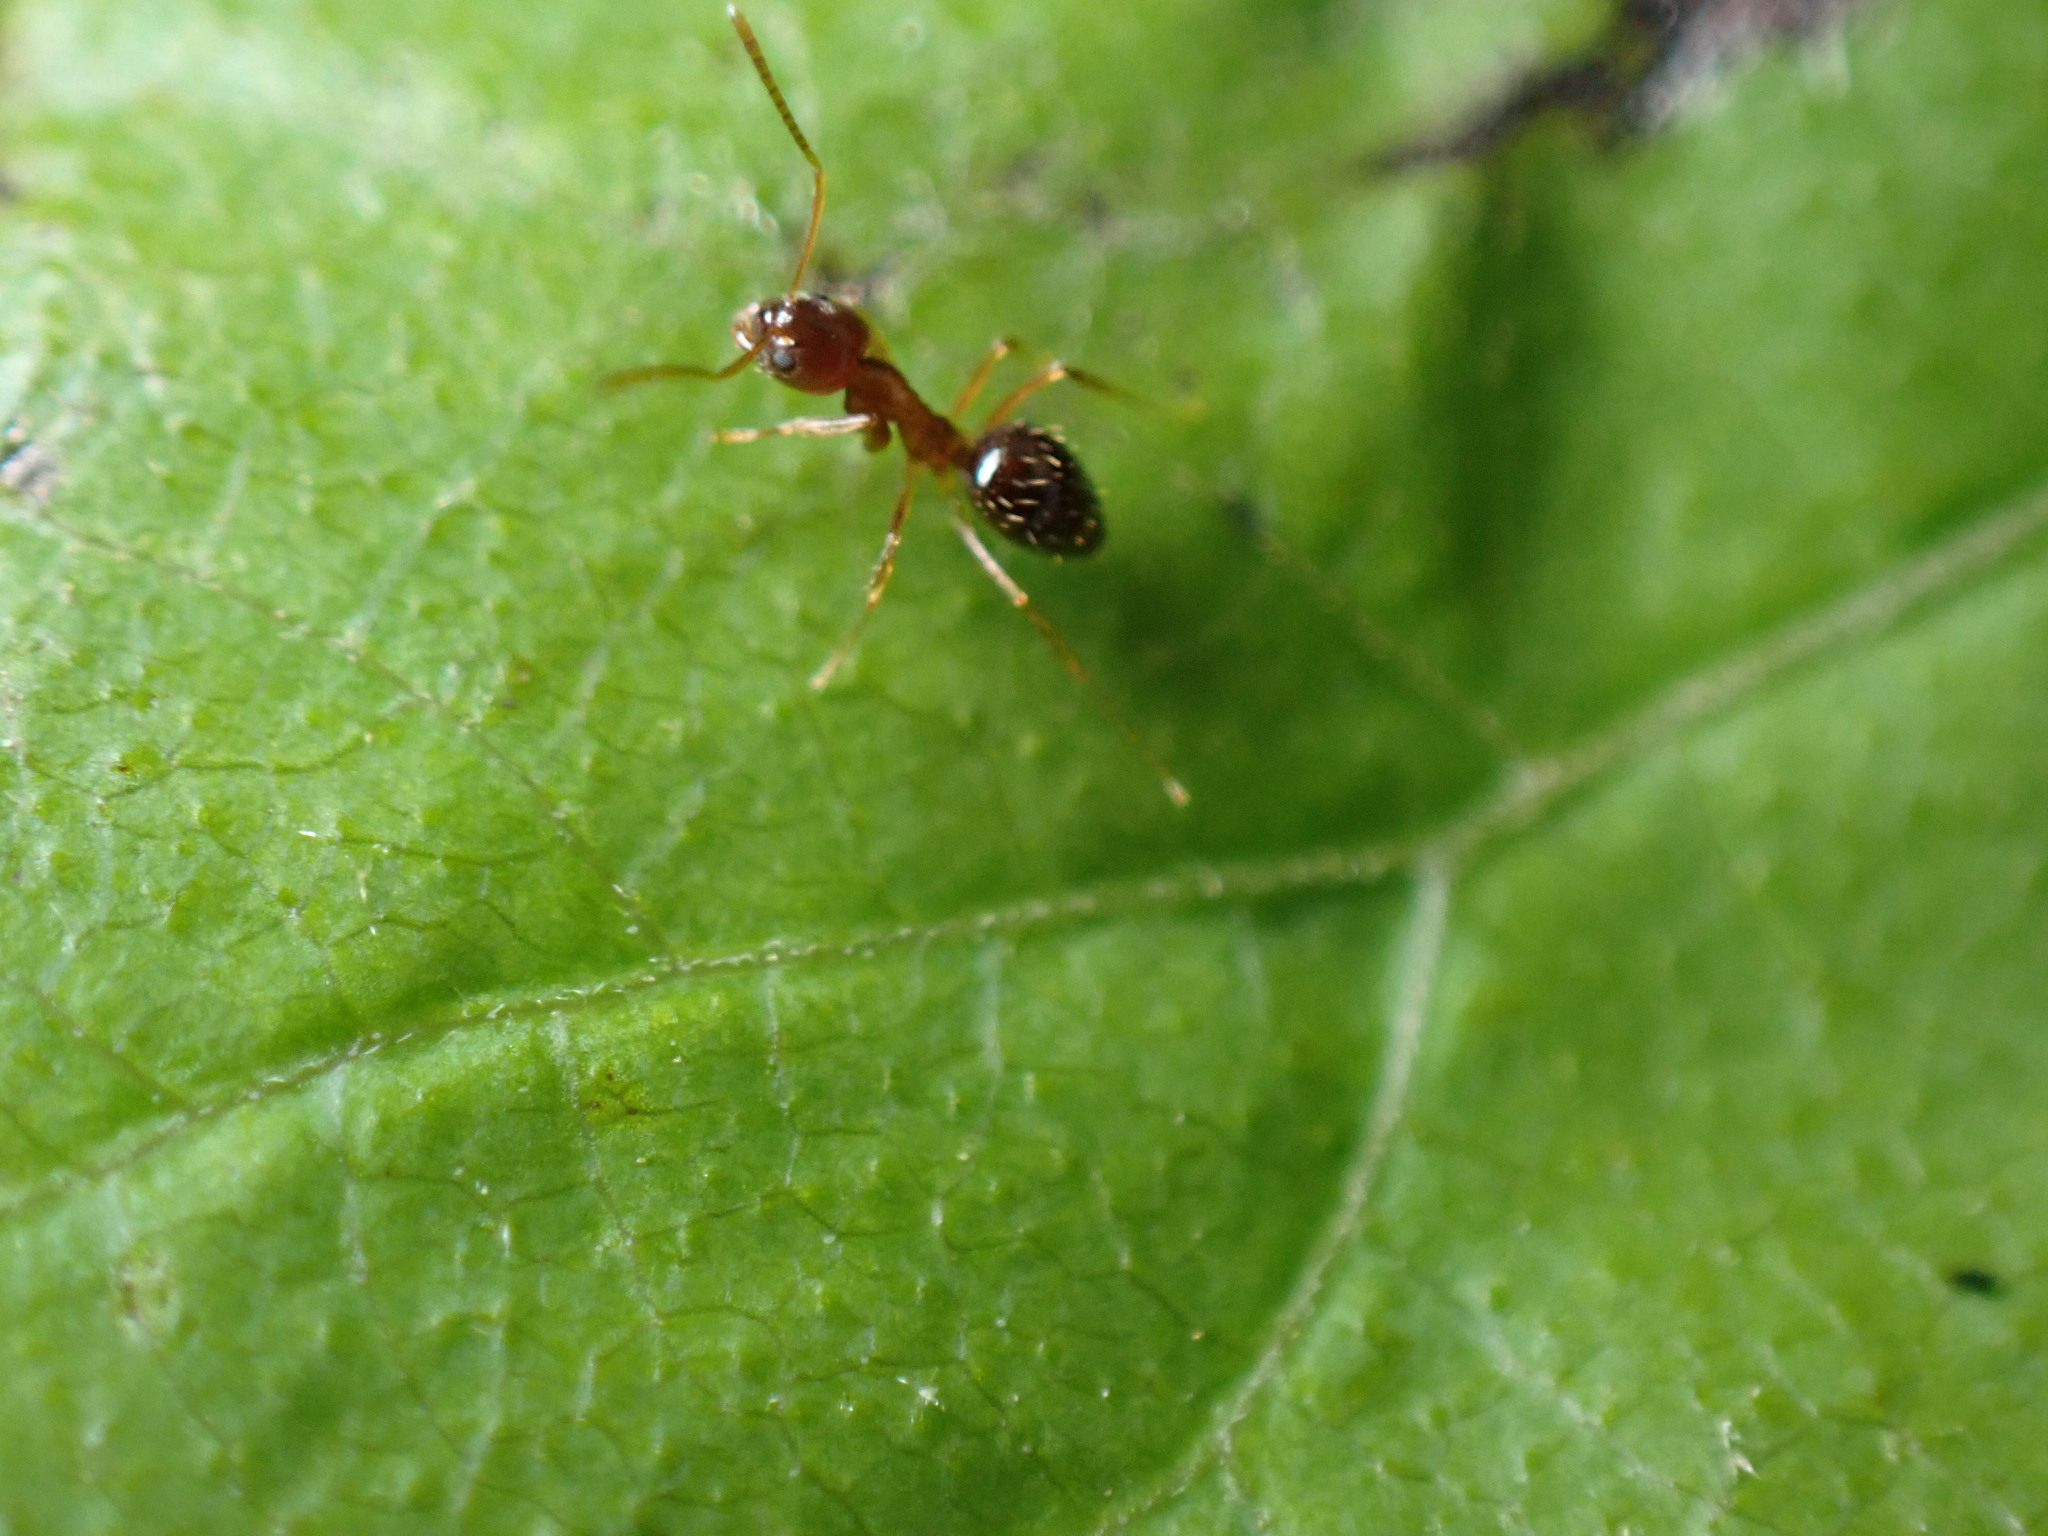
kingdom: Animalia
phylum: Arthropoda
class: Insecta
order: Hymenoptera
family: Formicidae
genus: Paratrechina
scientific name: Paratrechina flavipes
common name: Eastern asian formicine ant
